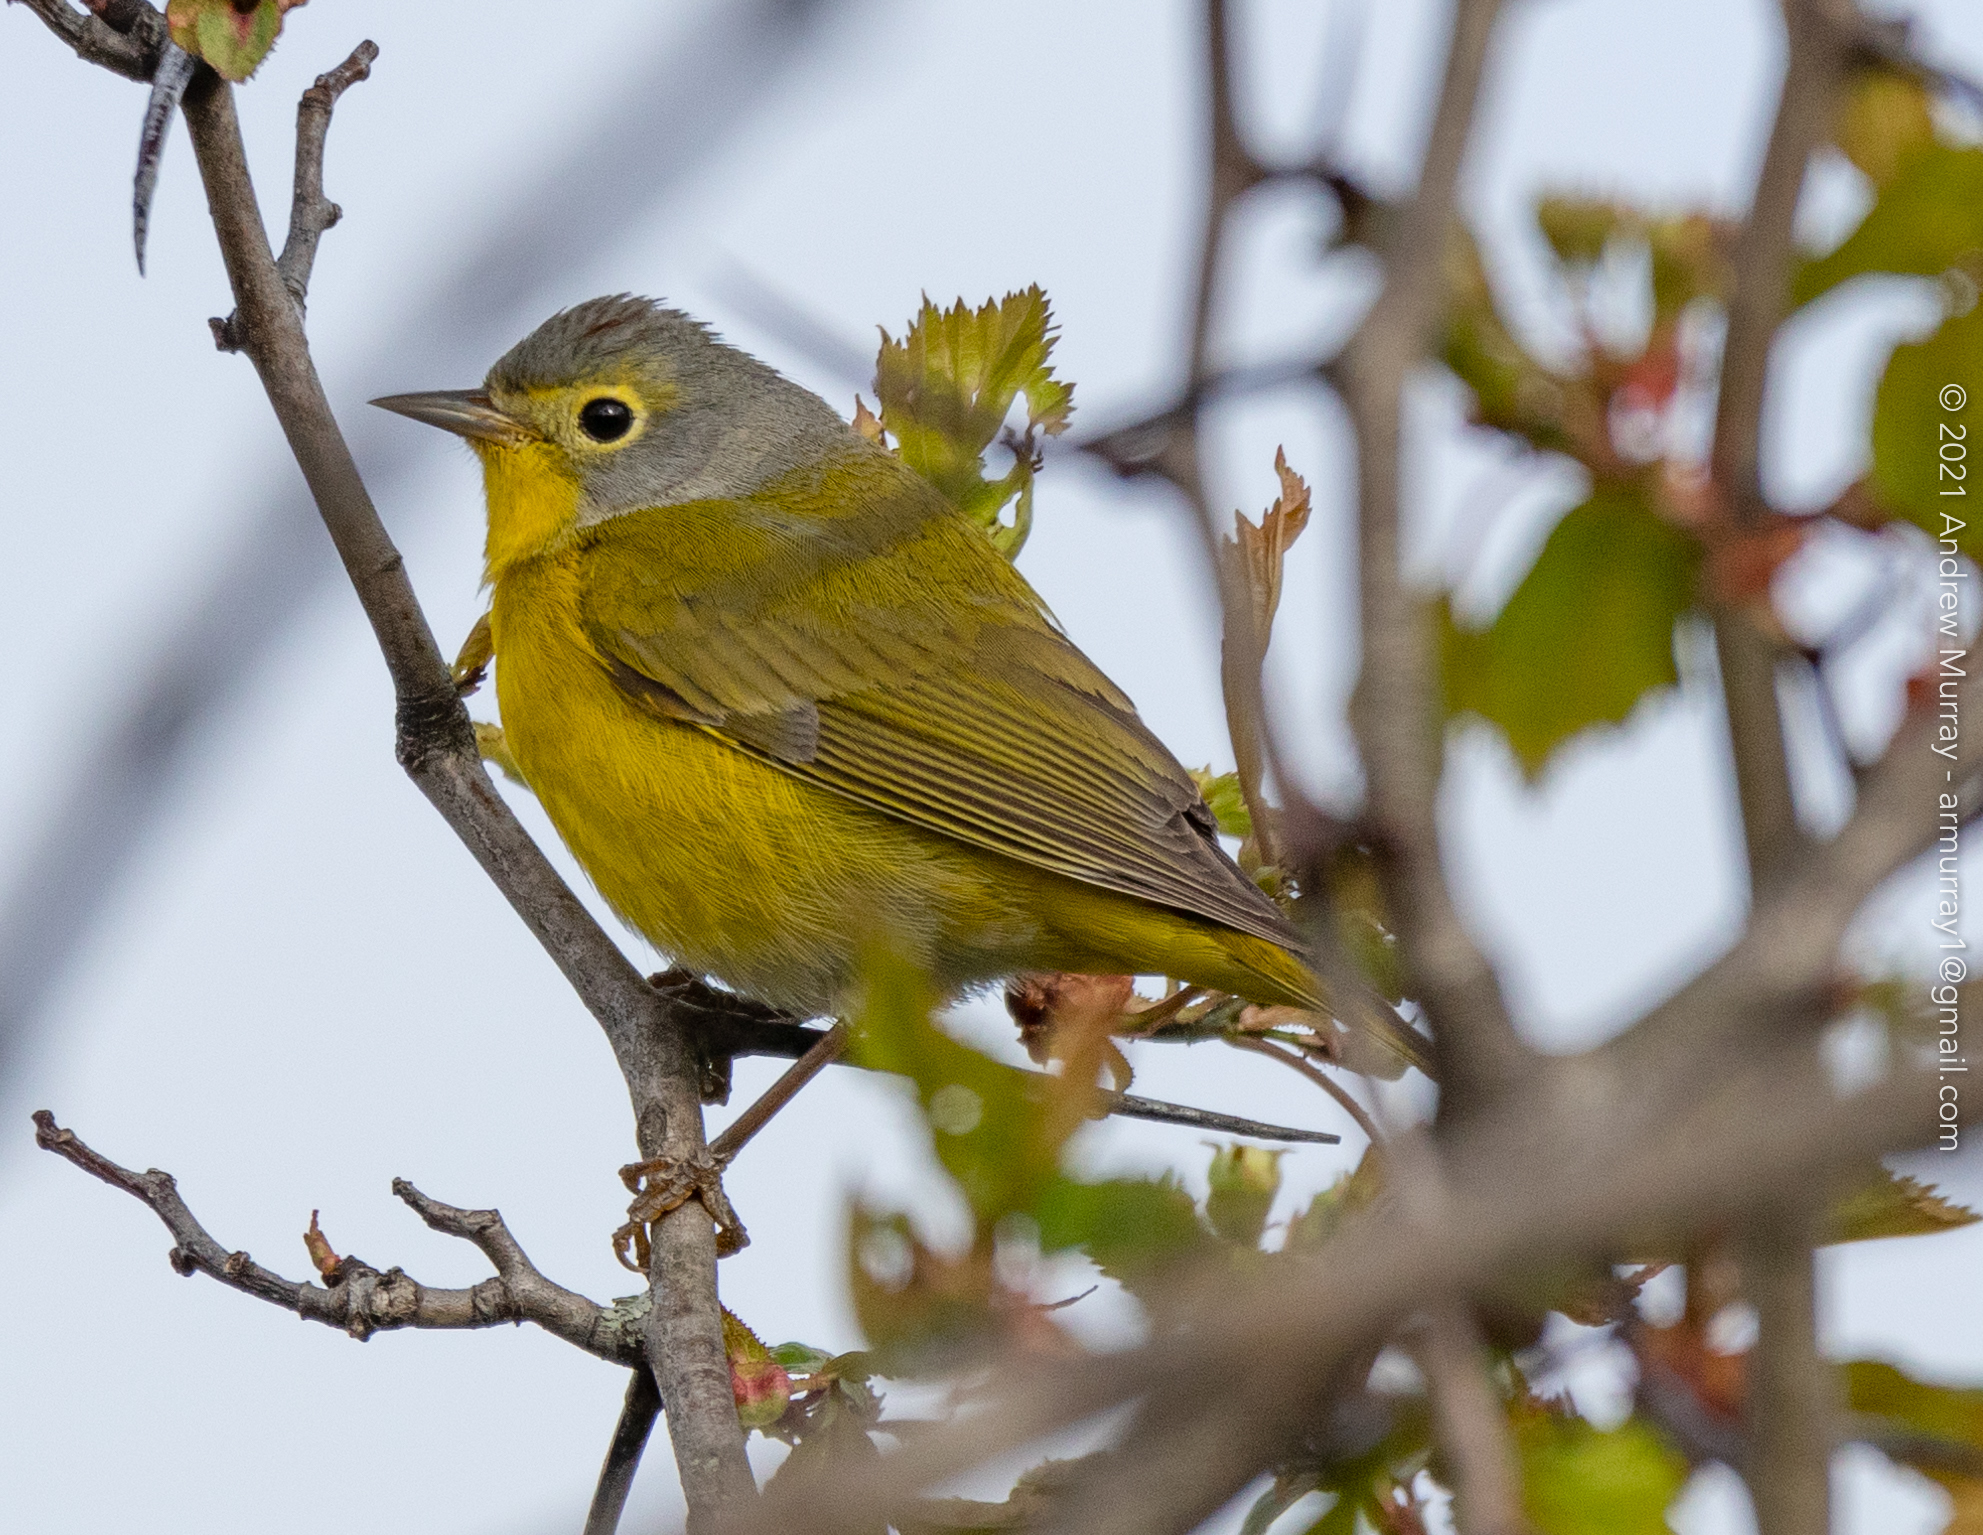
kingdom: Animalia
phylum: Chordata
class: Aves
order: Passeriformes
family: Parulidae
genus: Leiothlypis
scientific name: Leiothlypis ruficapilla
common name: Nashville warbler
